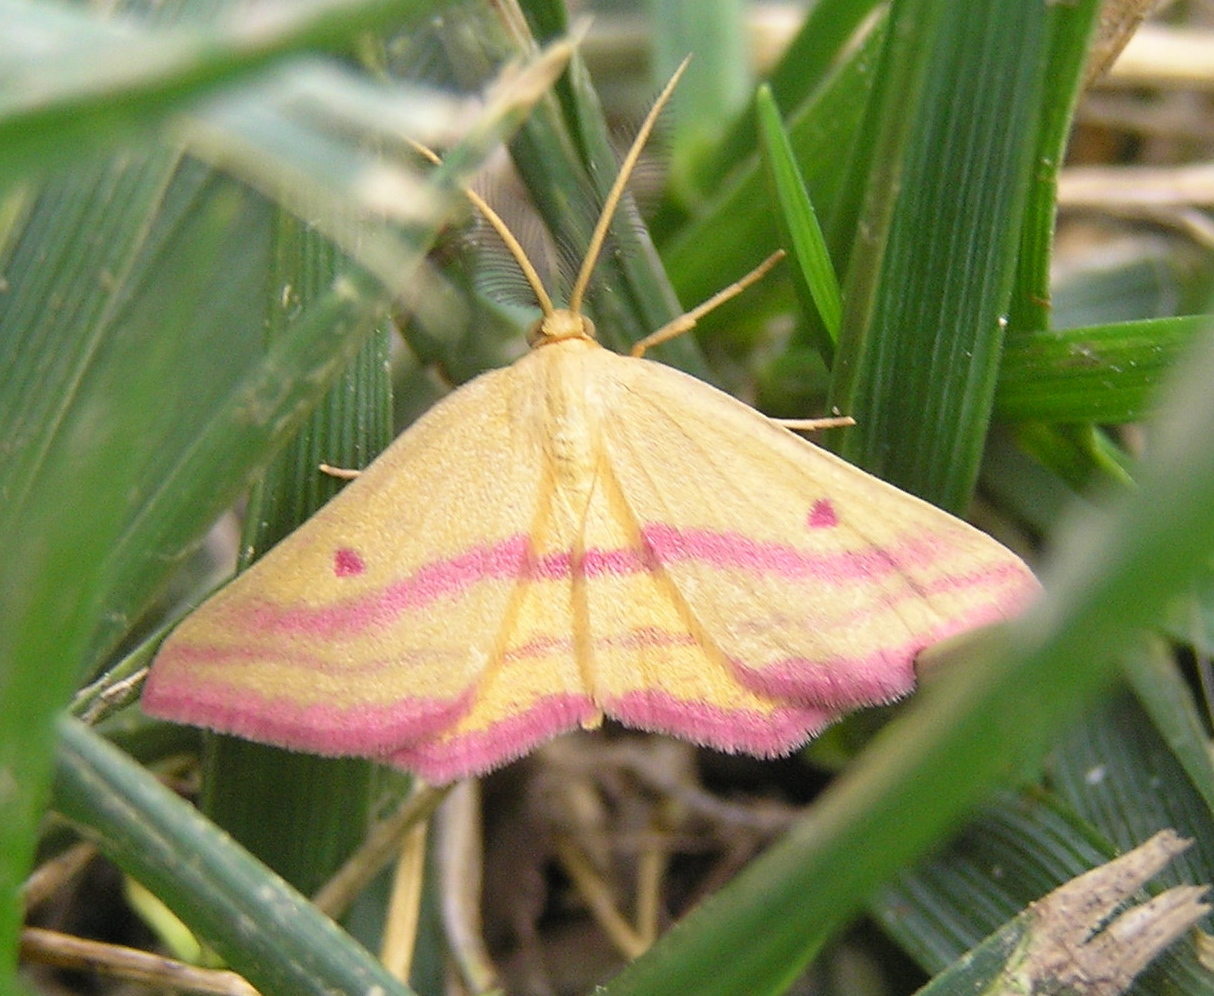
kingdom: Animalia
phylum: Arthropoda
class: Insecta
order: Lepidoptera
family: Geometridae
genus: Haematopis
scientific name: Haematopis grataria
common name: Chickweed geometer
